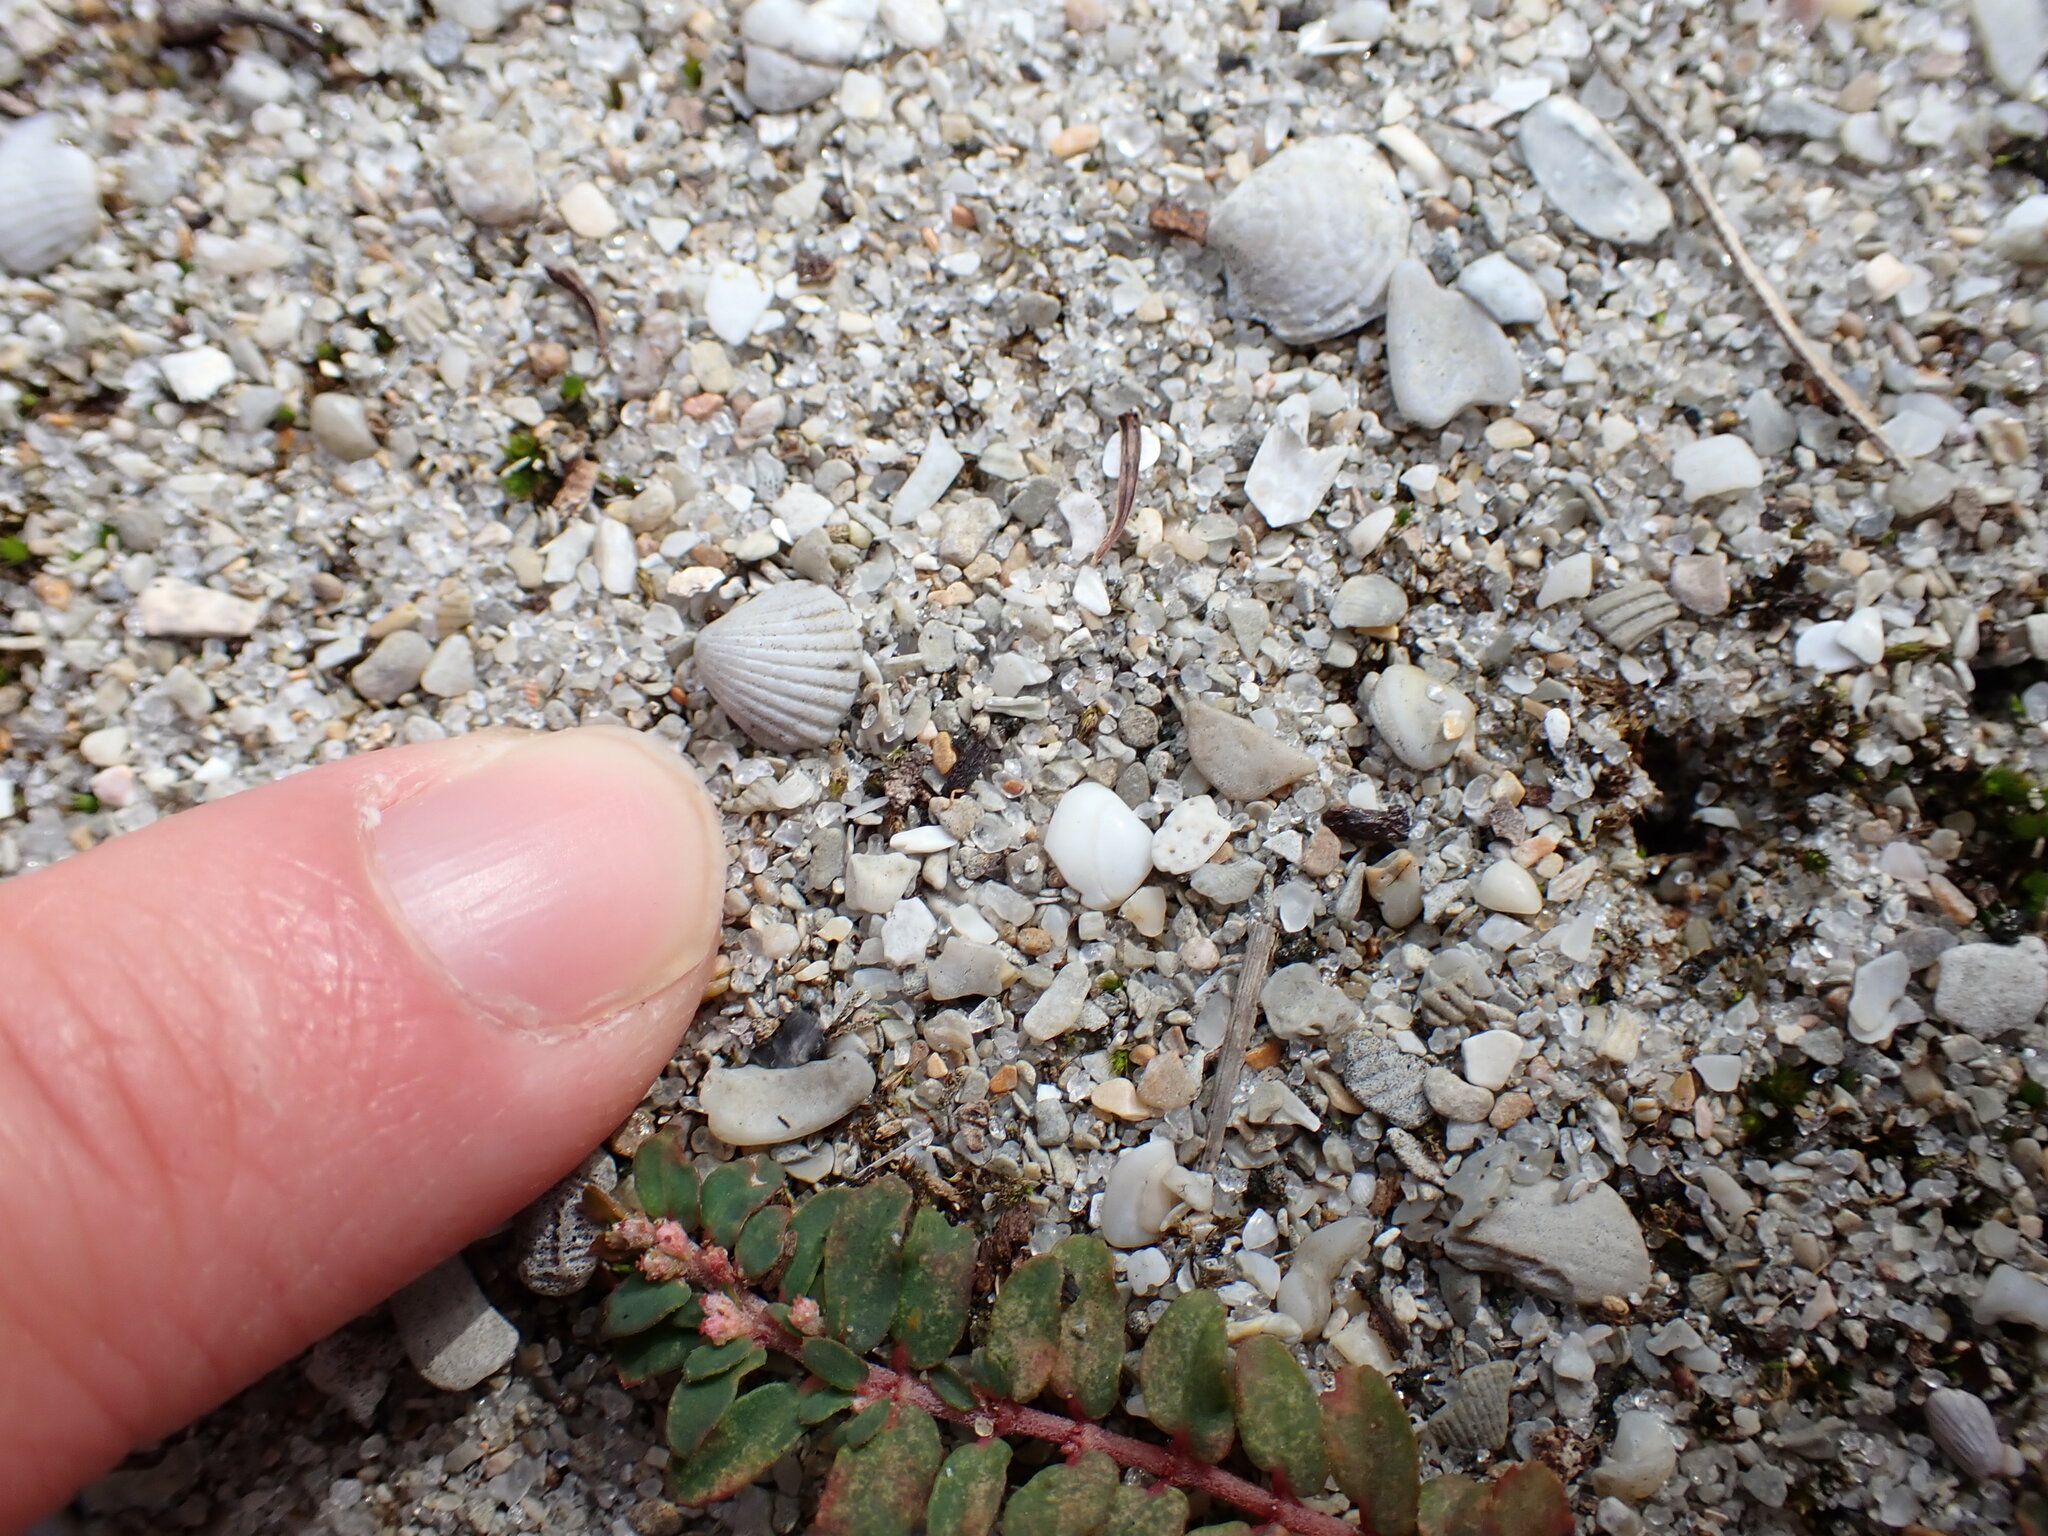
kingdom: Plantae
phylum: Tracheophyta
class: Magnoliopsida
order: Malpighiales
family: Euphorbiaceae
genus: Euphorbia
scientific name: Euphorbia maculata
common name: Spotted spurge
